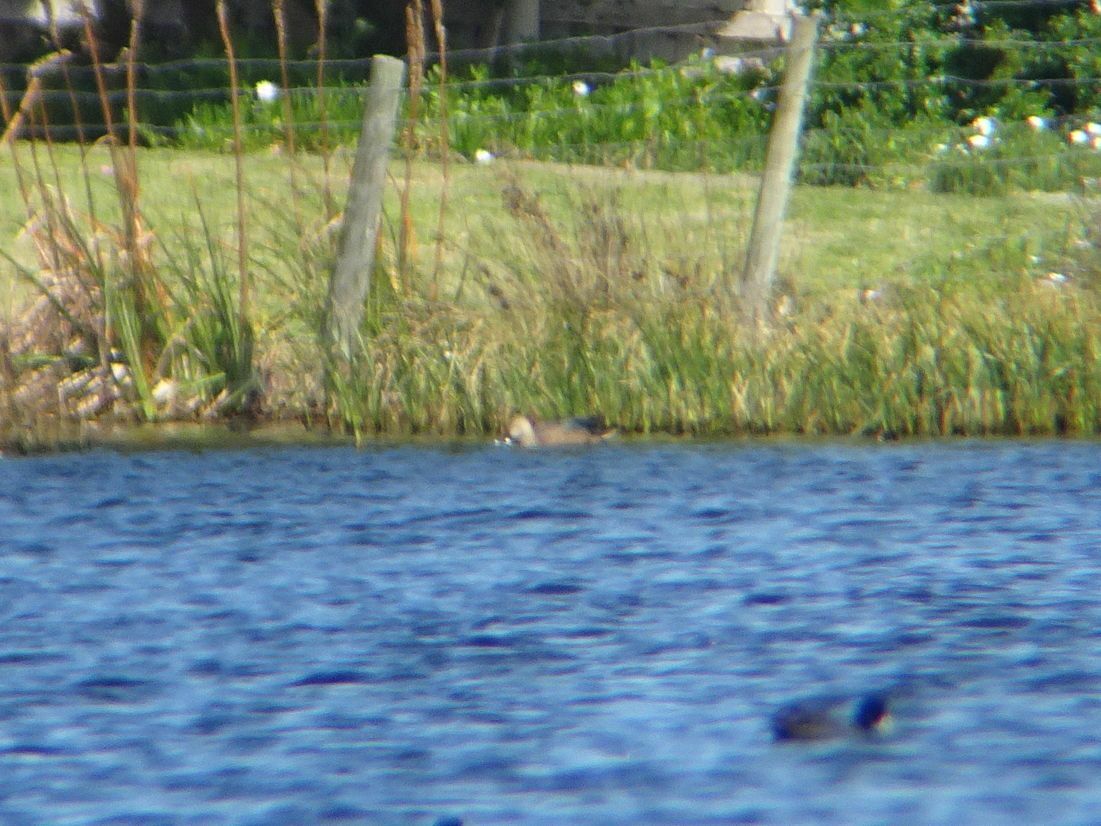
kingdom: Animalia
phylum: Chordata
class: Aves
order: Anseriformes
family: Anatidae
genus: Spatula
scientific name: Spatula smithii
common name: Cape shoveler
